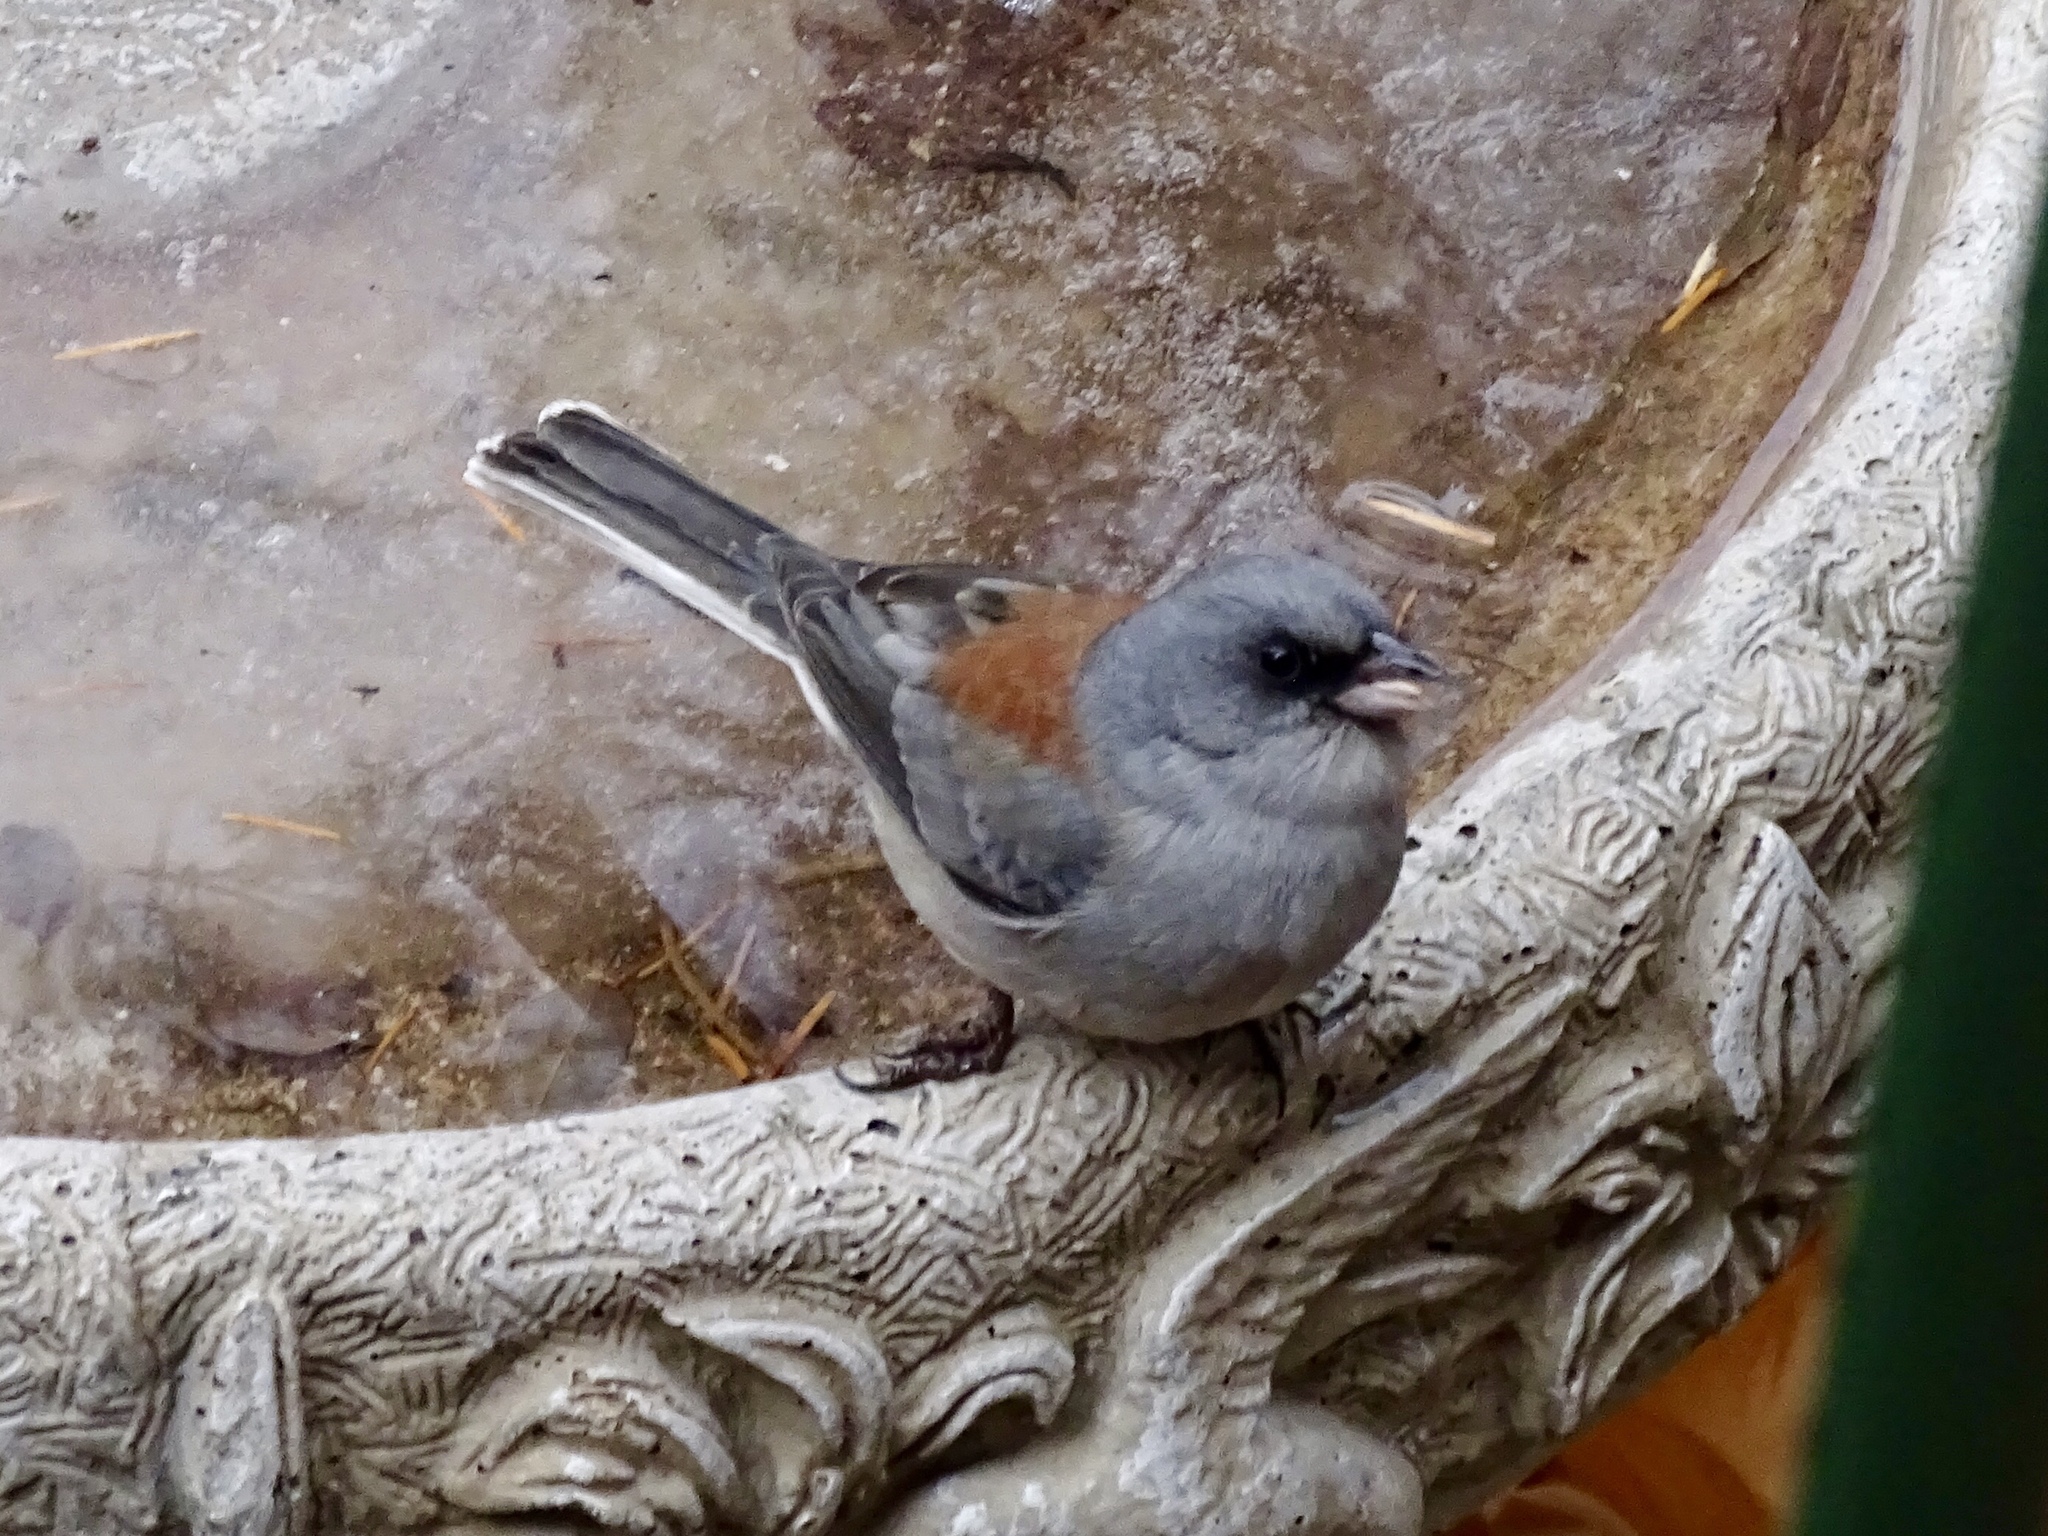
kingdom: Animalia
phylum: Chordata
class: Aves
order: Passeriformes
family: Passerellidae
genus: Junco
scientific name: Junco hyemalis
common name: Dark-eyed junco
